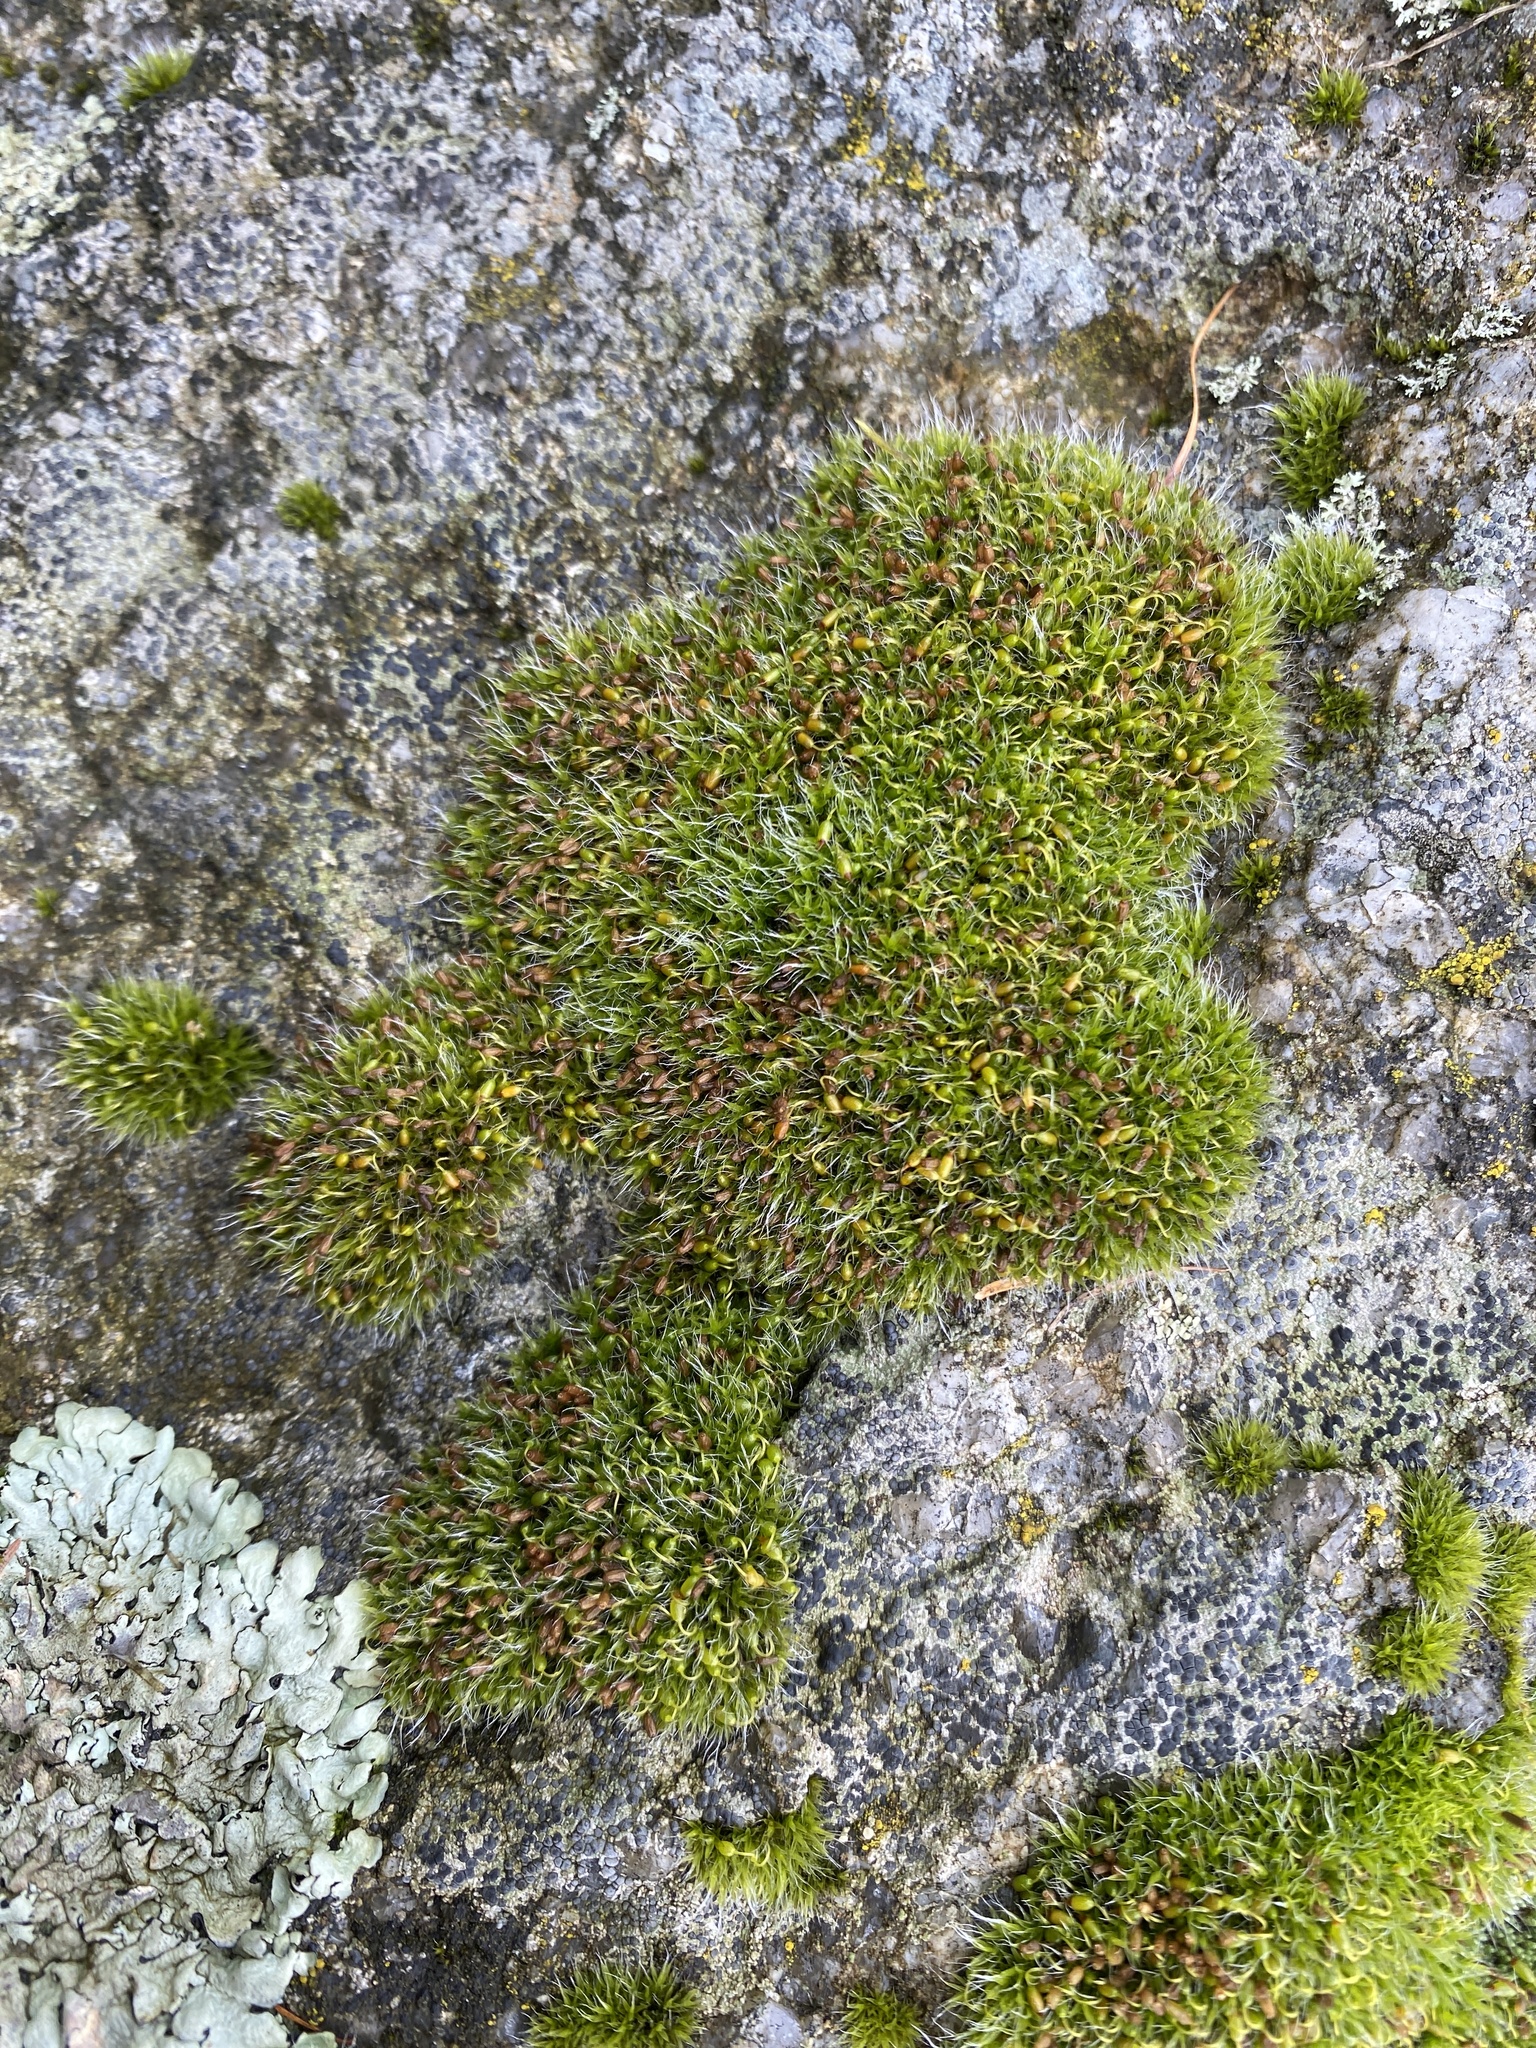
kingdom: Plantae
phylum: Bryophyta
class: Bryopsida
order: Grimmiales
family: Grimmiaceae
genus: Grimmia
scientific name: Grimmia pulvinata
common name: Grey-cushioned grimmia
